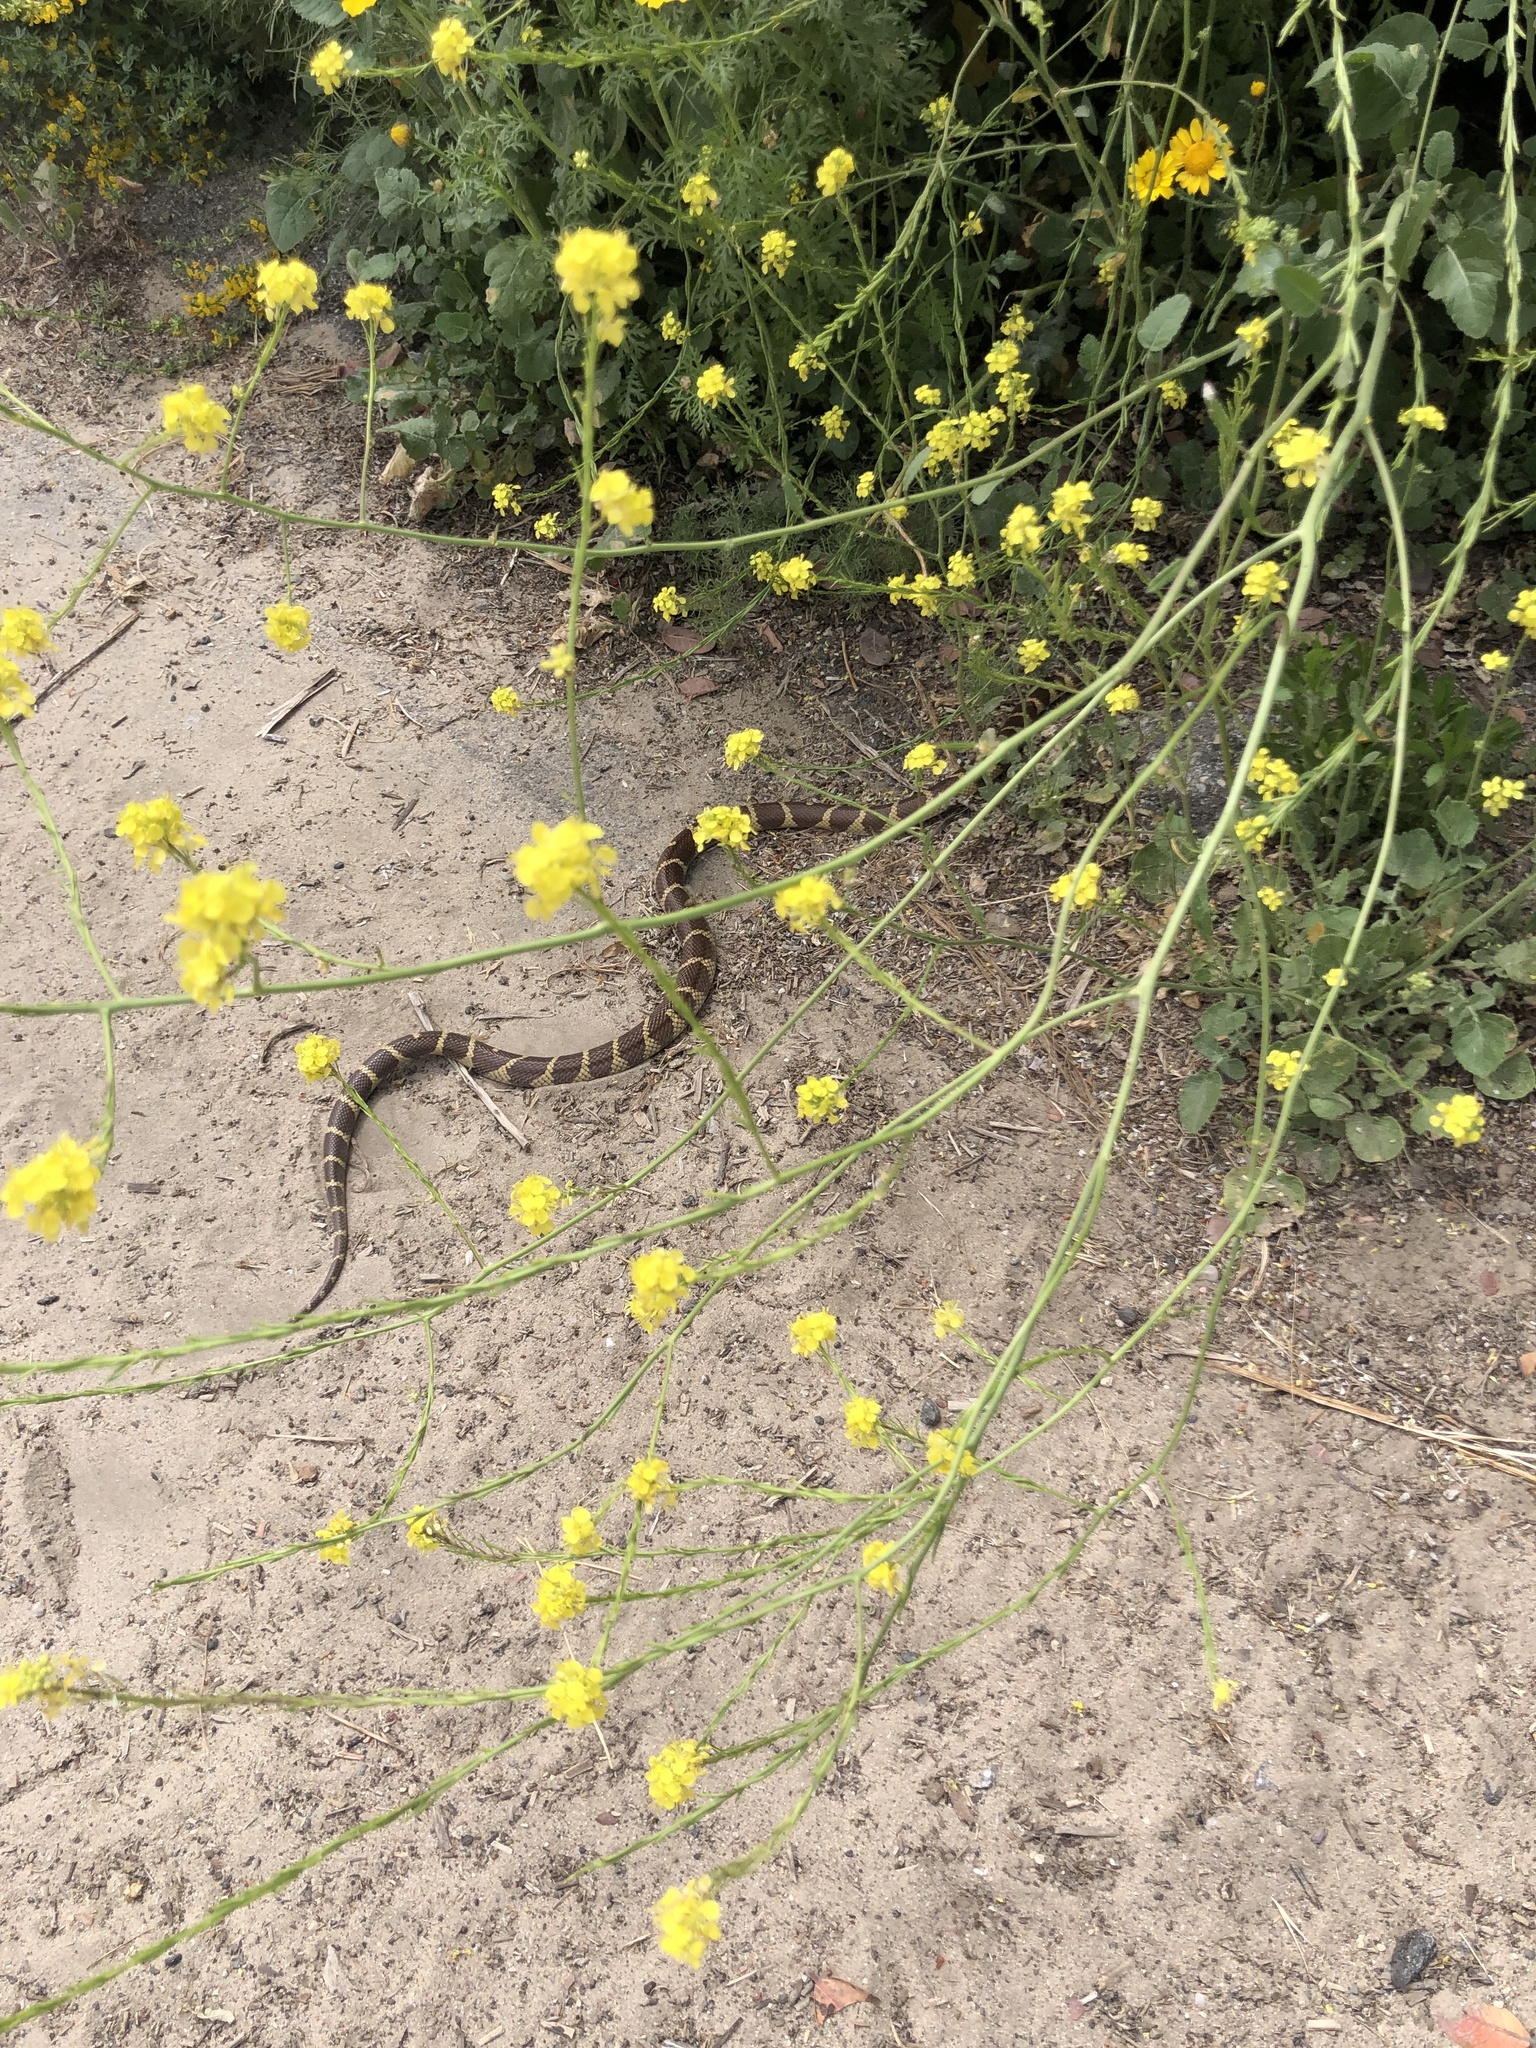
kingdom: Animalia
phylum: Chordata
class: Squamata
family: Colubridae
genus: Lampropeltis
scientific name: Lampropeltis californiae
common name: California kingsnake
